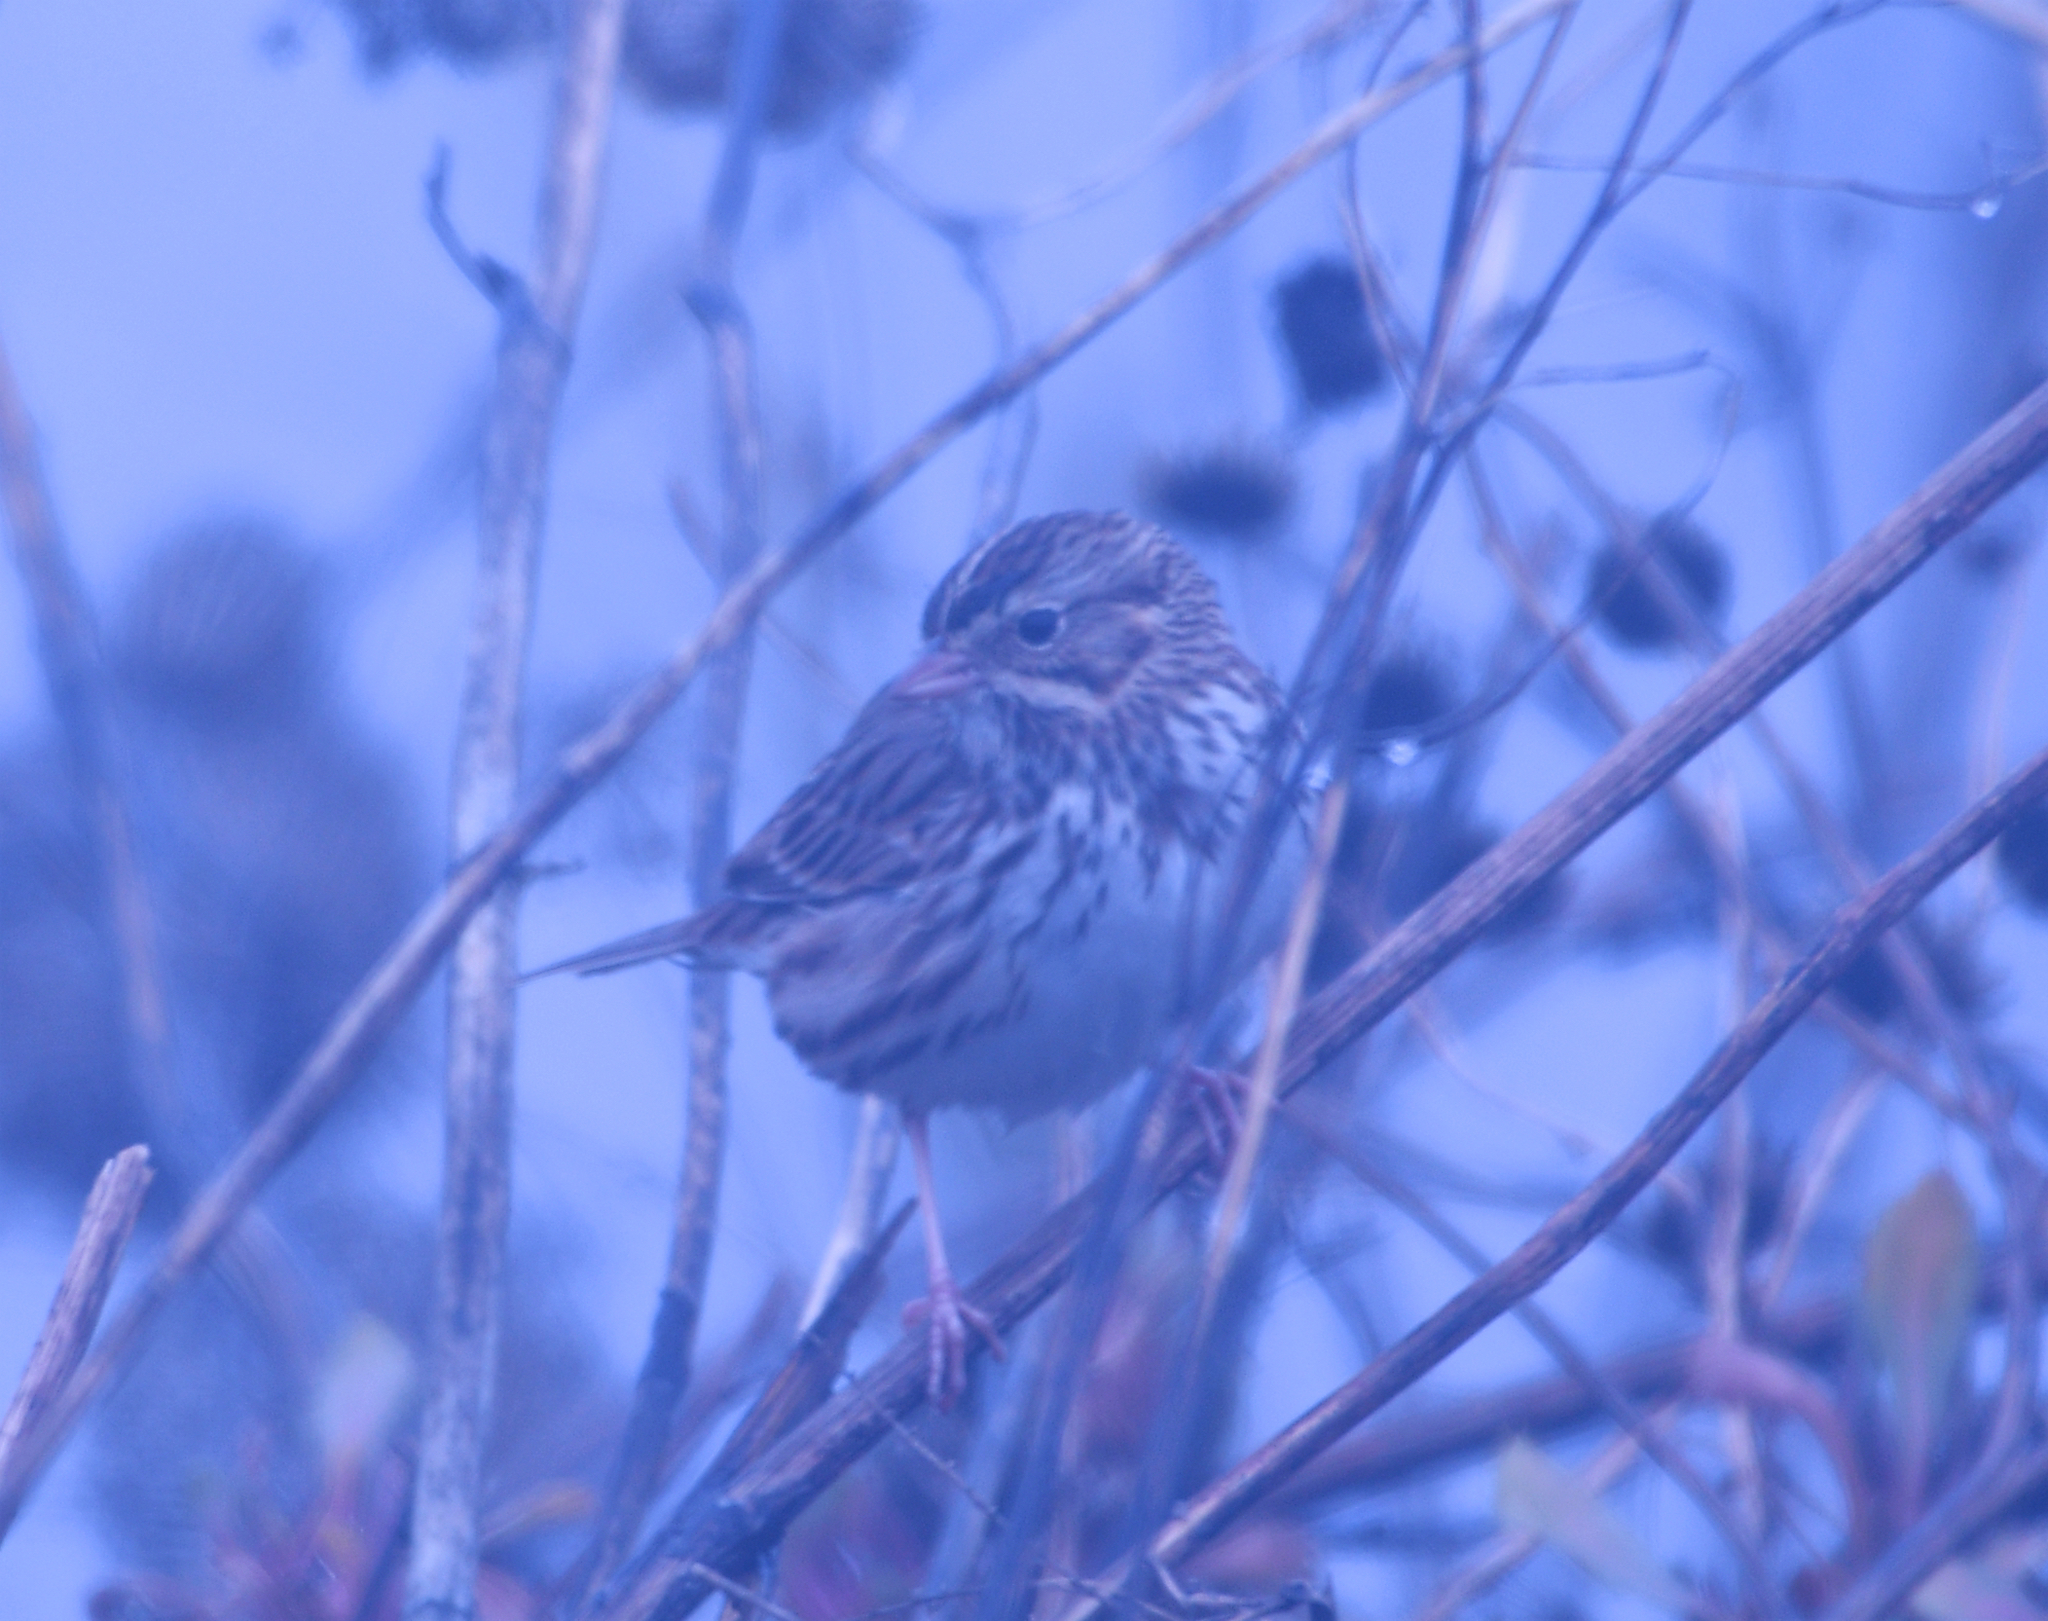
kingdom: Animalia
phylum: Chordata
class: Aves
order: Passeriformes
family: Passerellidae
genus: Passerculus
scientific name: Passerculus sandwichensis
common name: Savannah sparrow
